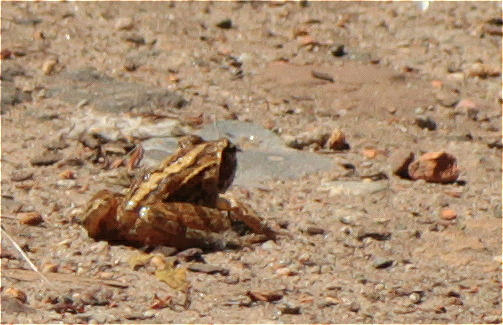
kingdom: Animalia
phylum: Chordata
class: Amphibia
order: Anura
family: Ranidae
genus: Rana
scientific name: Rana arvalis
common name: Moor frog
